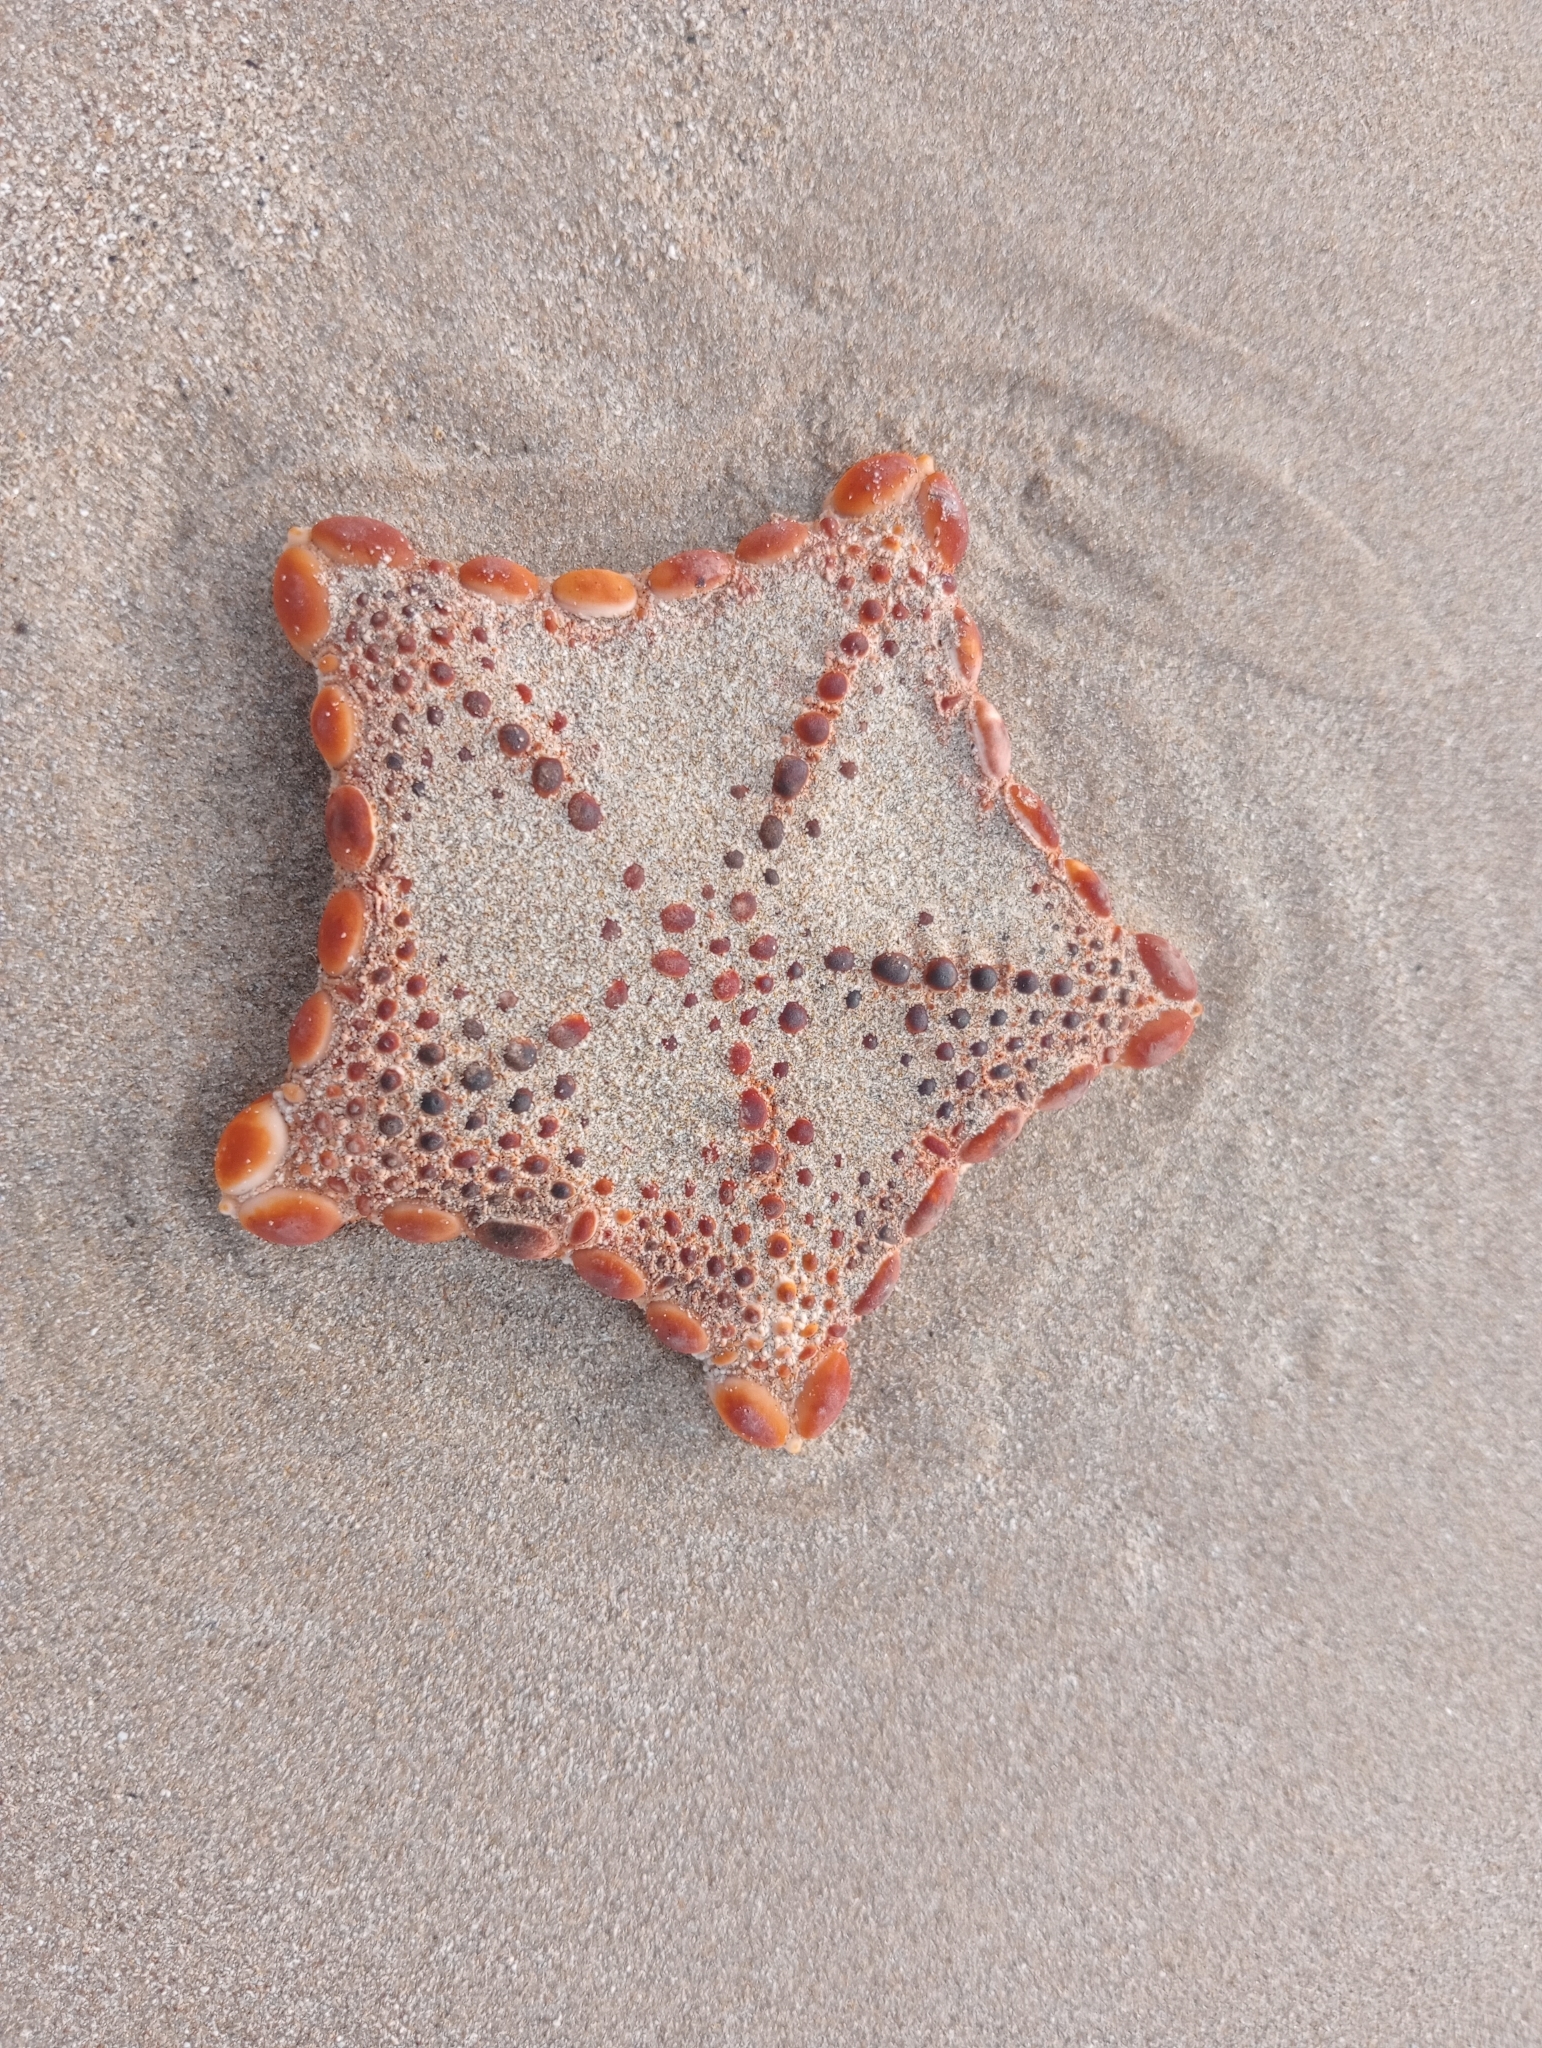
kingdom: Animalia
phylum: Echinodermata
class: Asteroidea
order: Valvatida
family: Goniasteridae
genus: Pentagonaster
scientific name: Pentagonaster pulchellus
